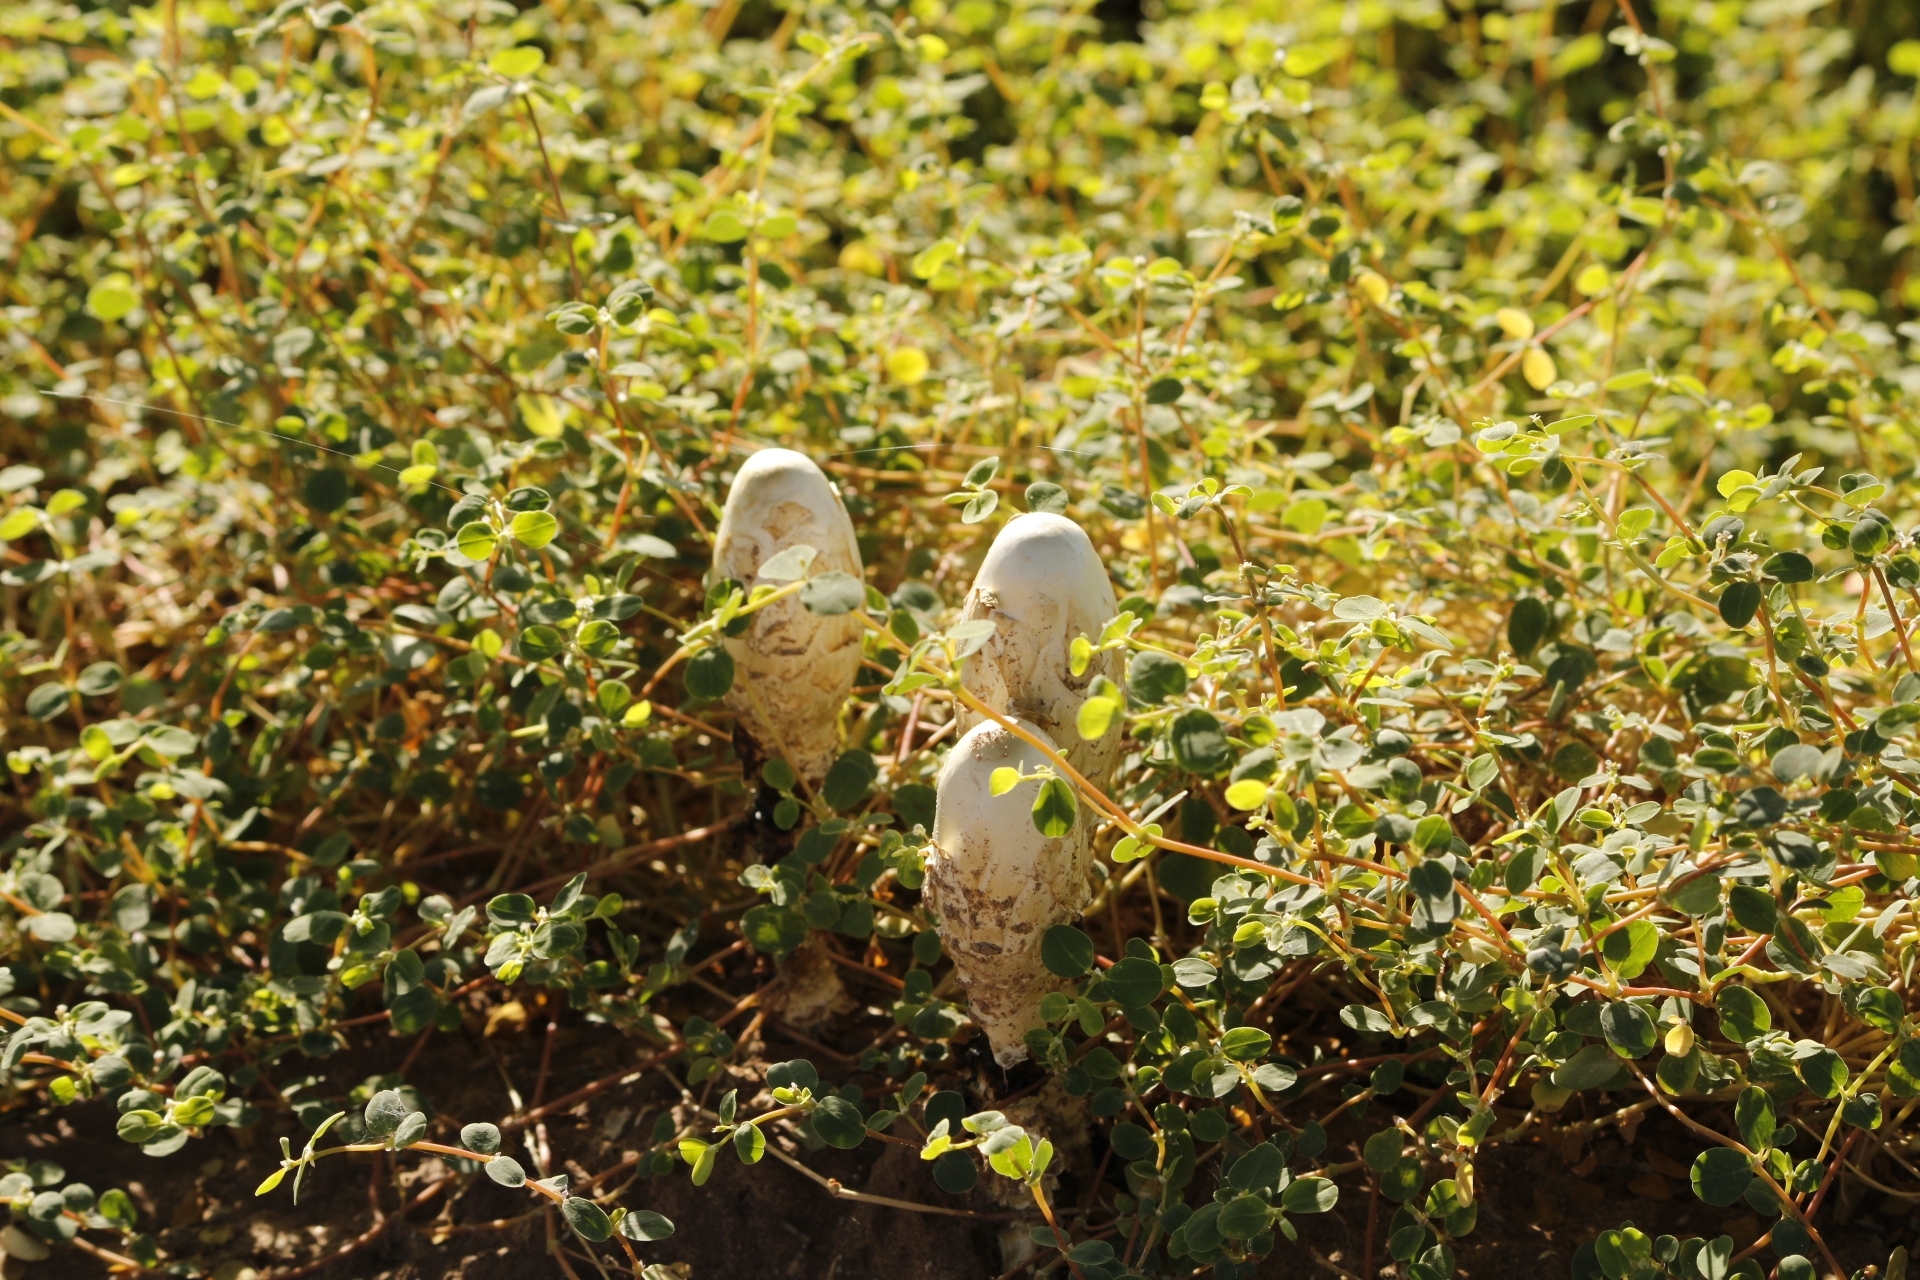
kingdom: Fungi
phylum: Basidiomycota
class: Agaricomycetes
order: Agaricales
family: Agaricaceae
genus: Podaxis
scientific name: Podaxis pistillaris
